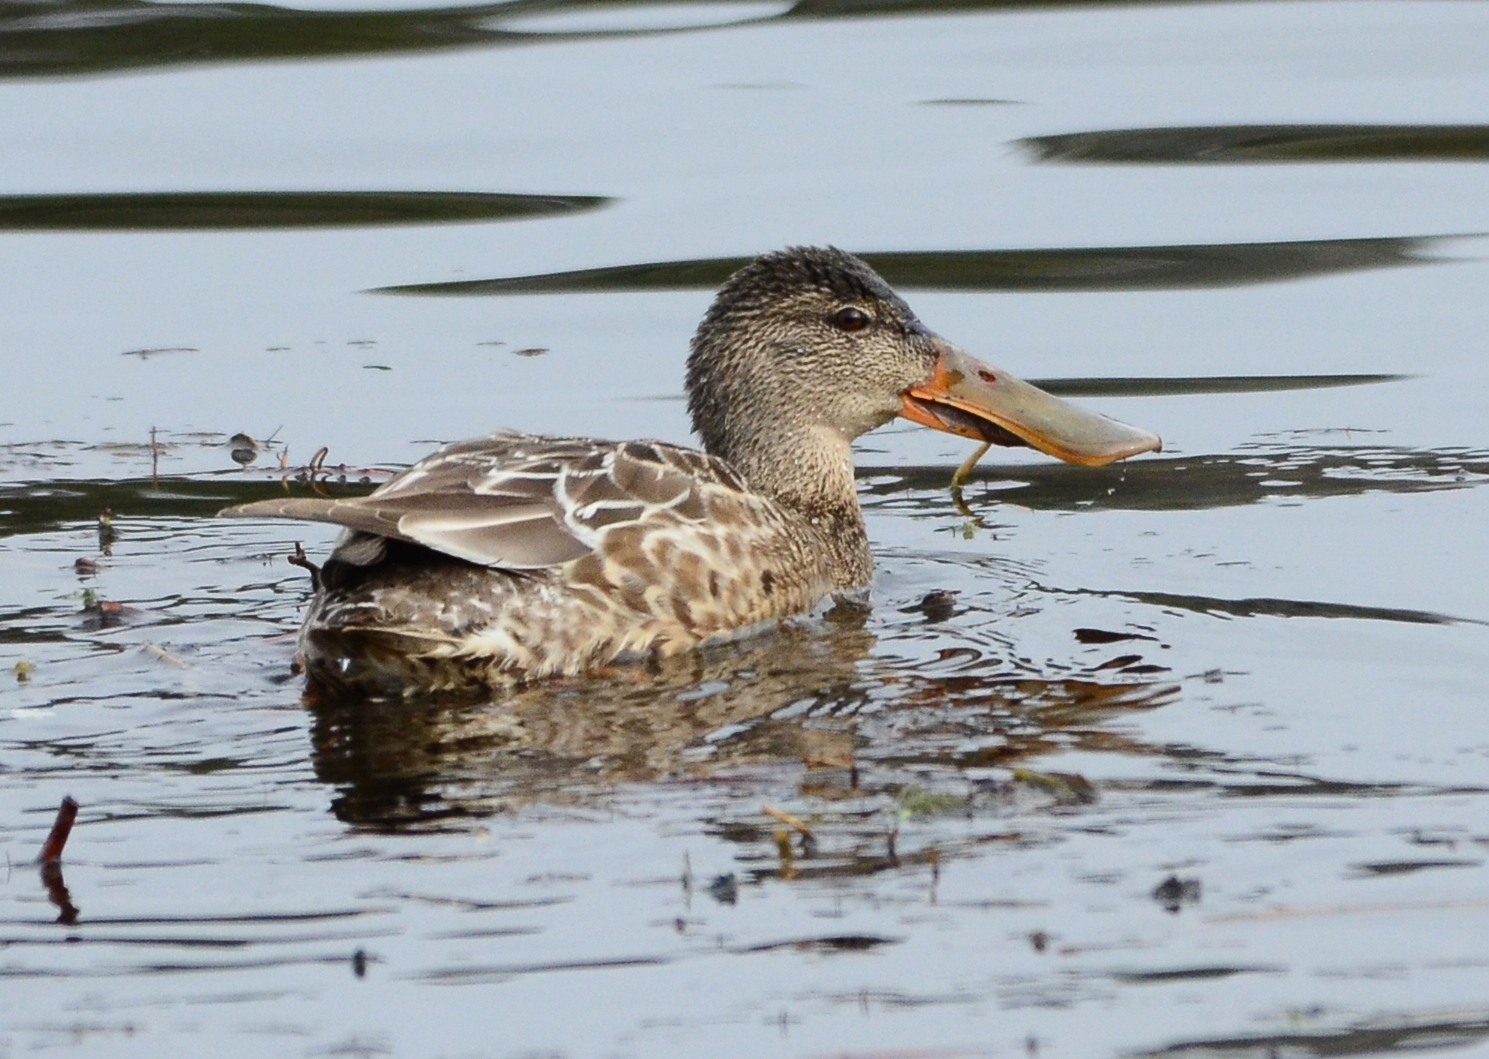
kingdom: Animalia
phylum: Chordata
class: Aves
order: Anseriformes
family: Anatidae
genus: Spatula
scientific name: Spatula clypeata
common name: Northern shoveler
